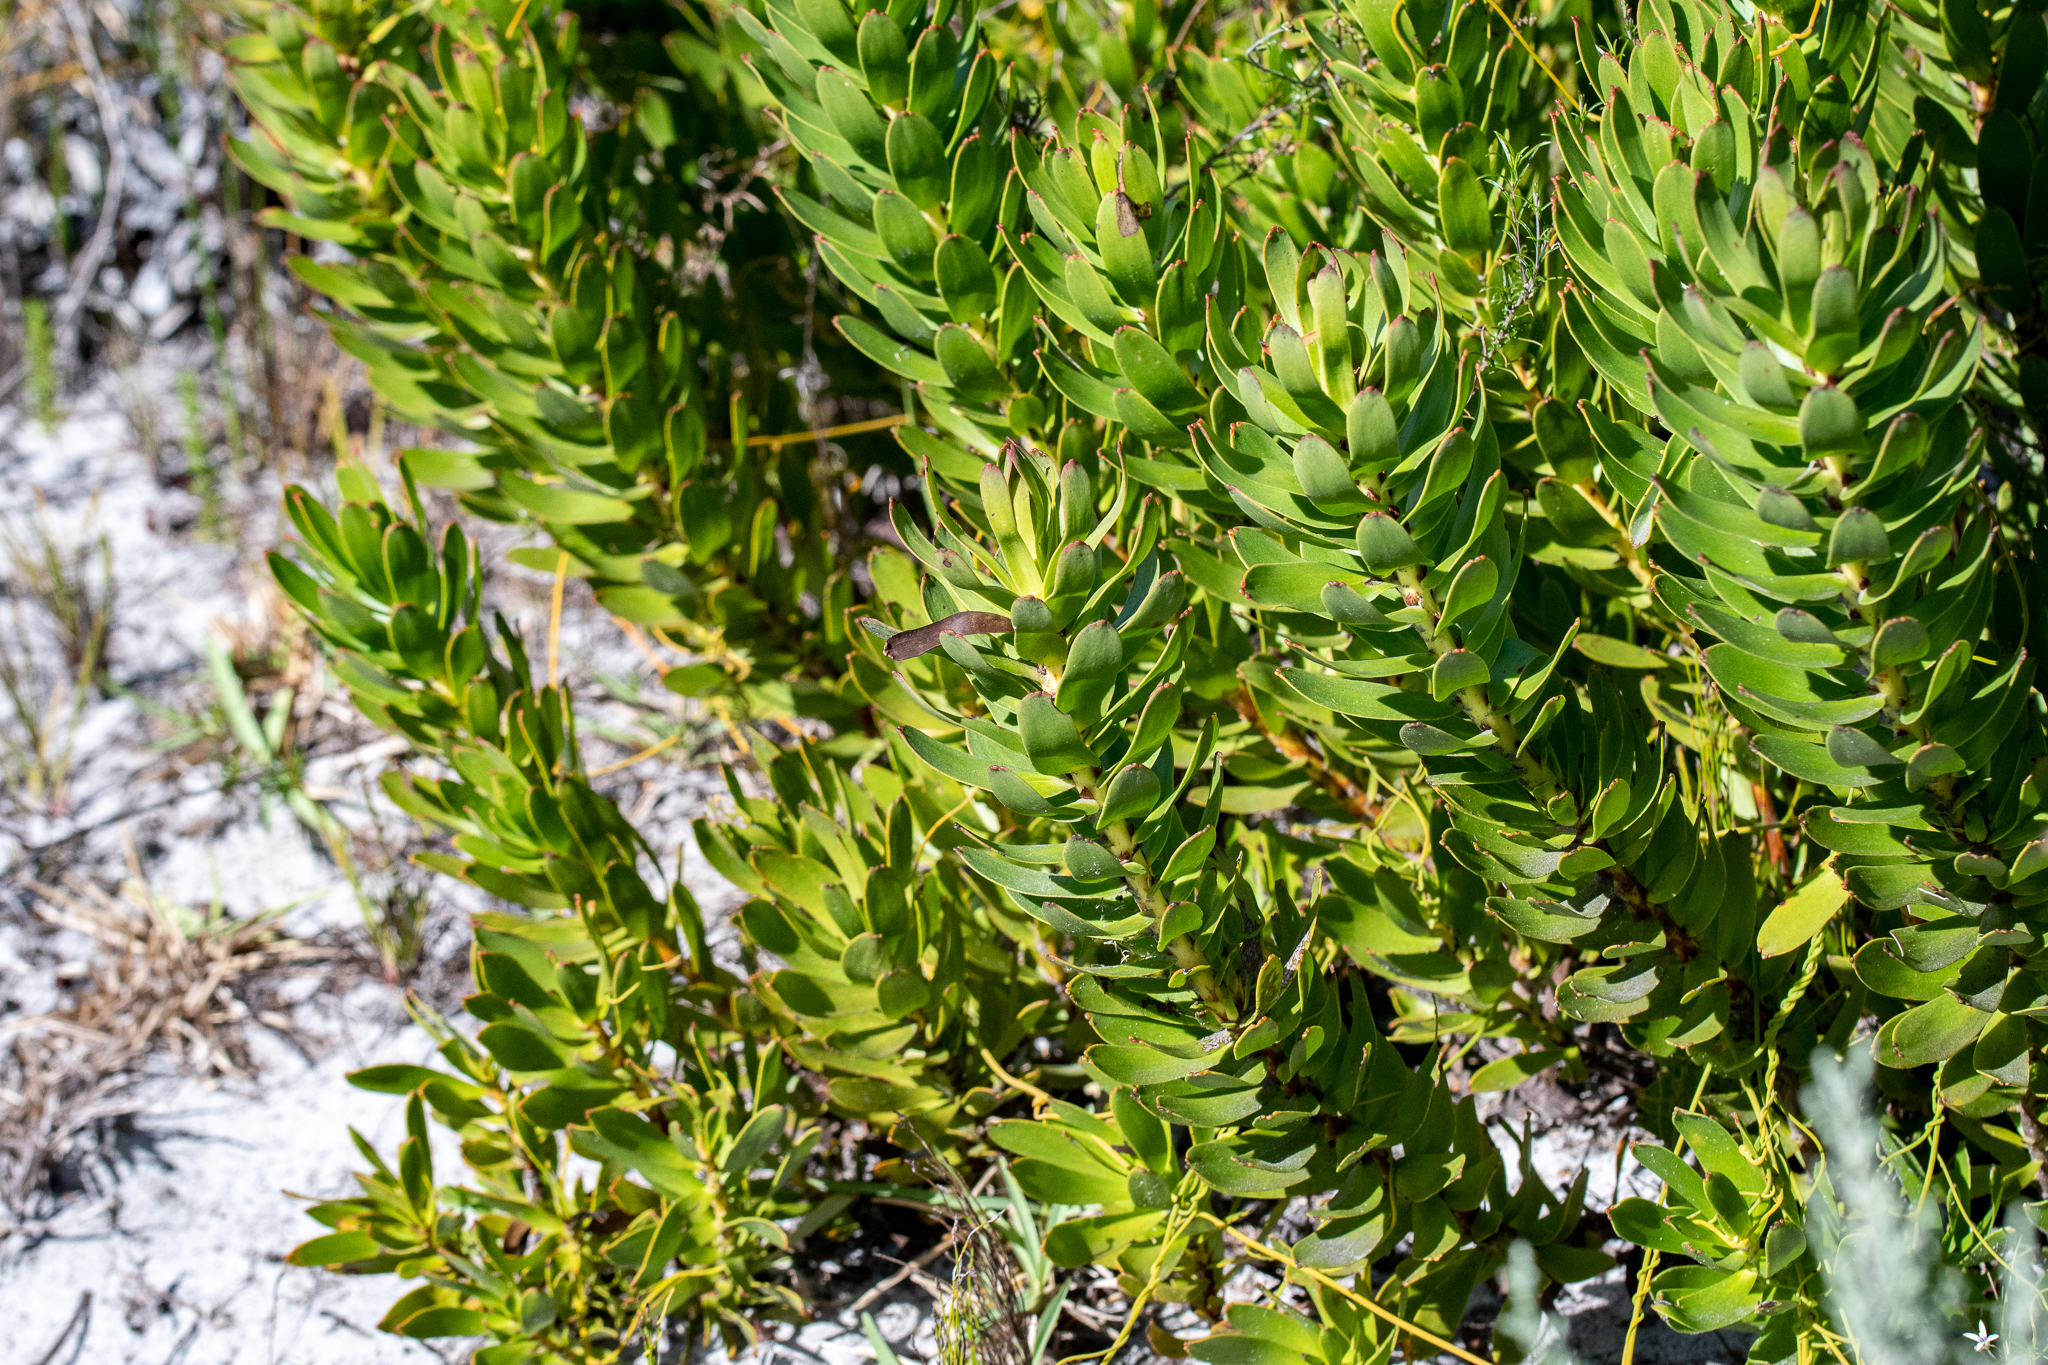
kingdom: Plantae
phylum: Tracheophyta
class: Magnoliopsida
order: Proteales
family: Proteaceae
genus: Mimetes
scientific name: Mimetes cucullatus
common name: Common pagoda
